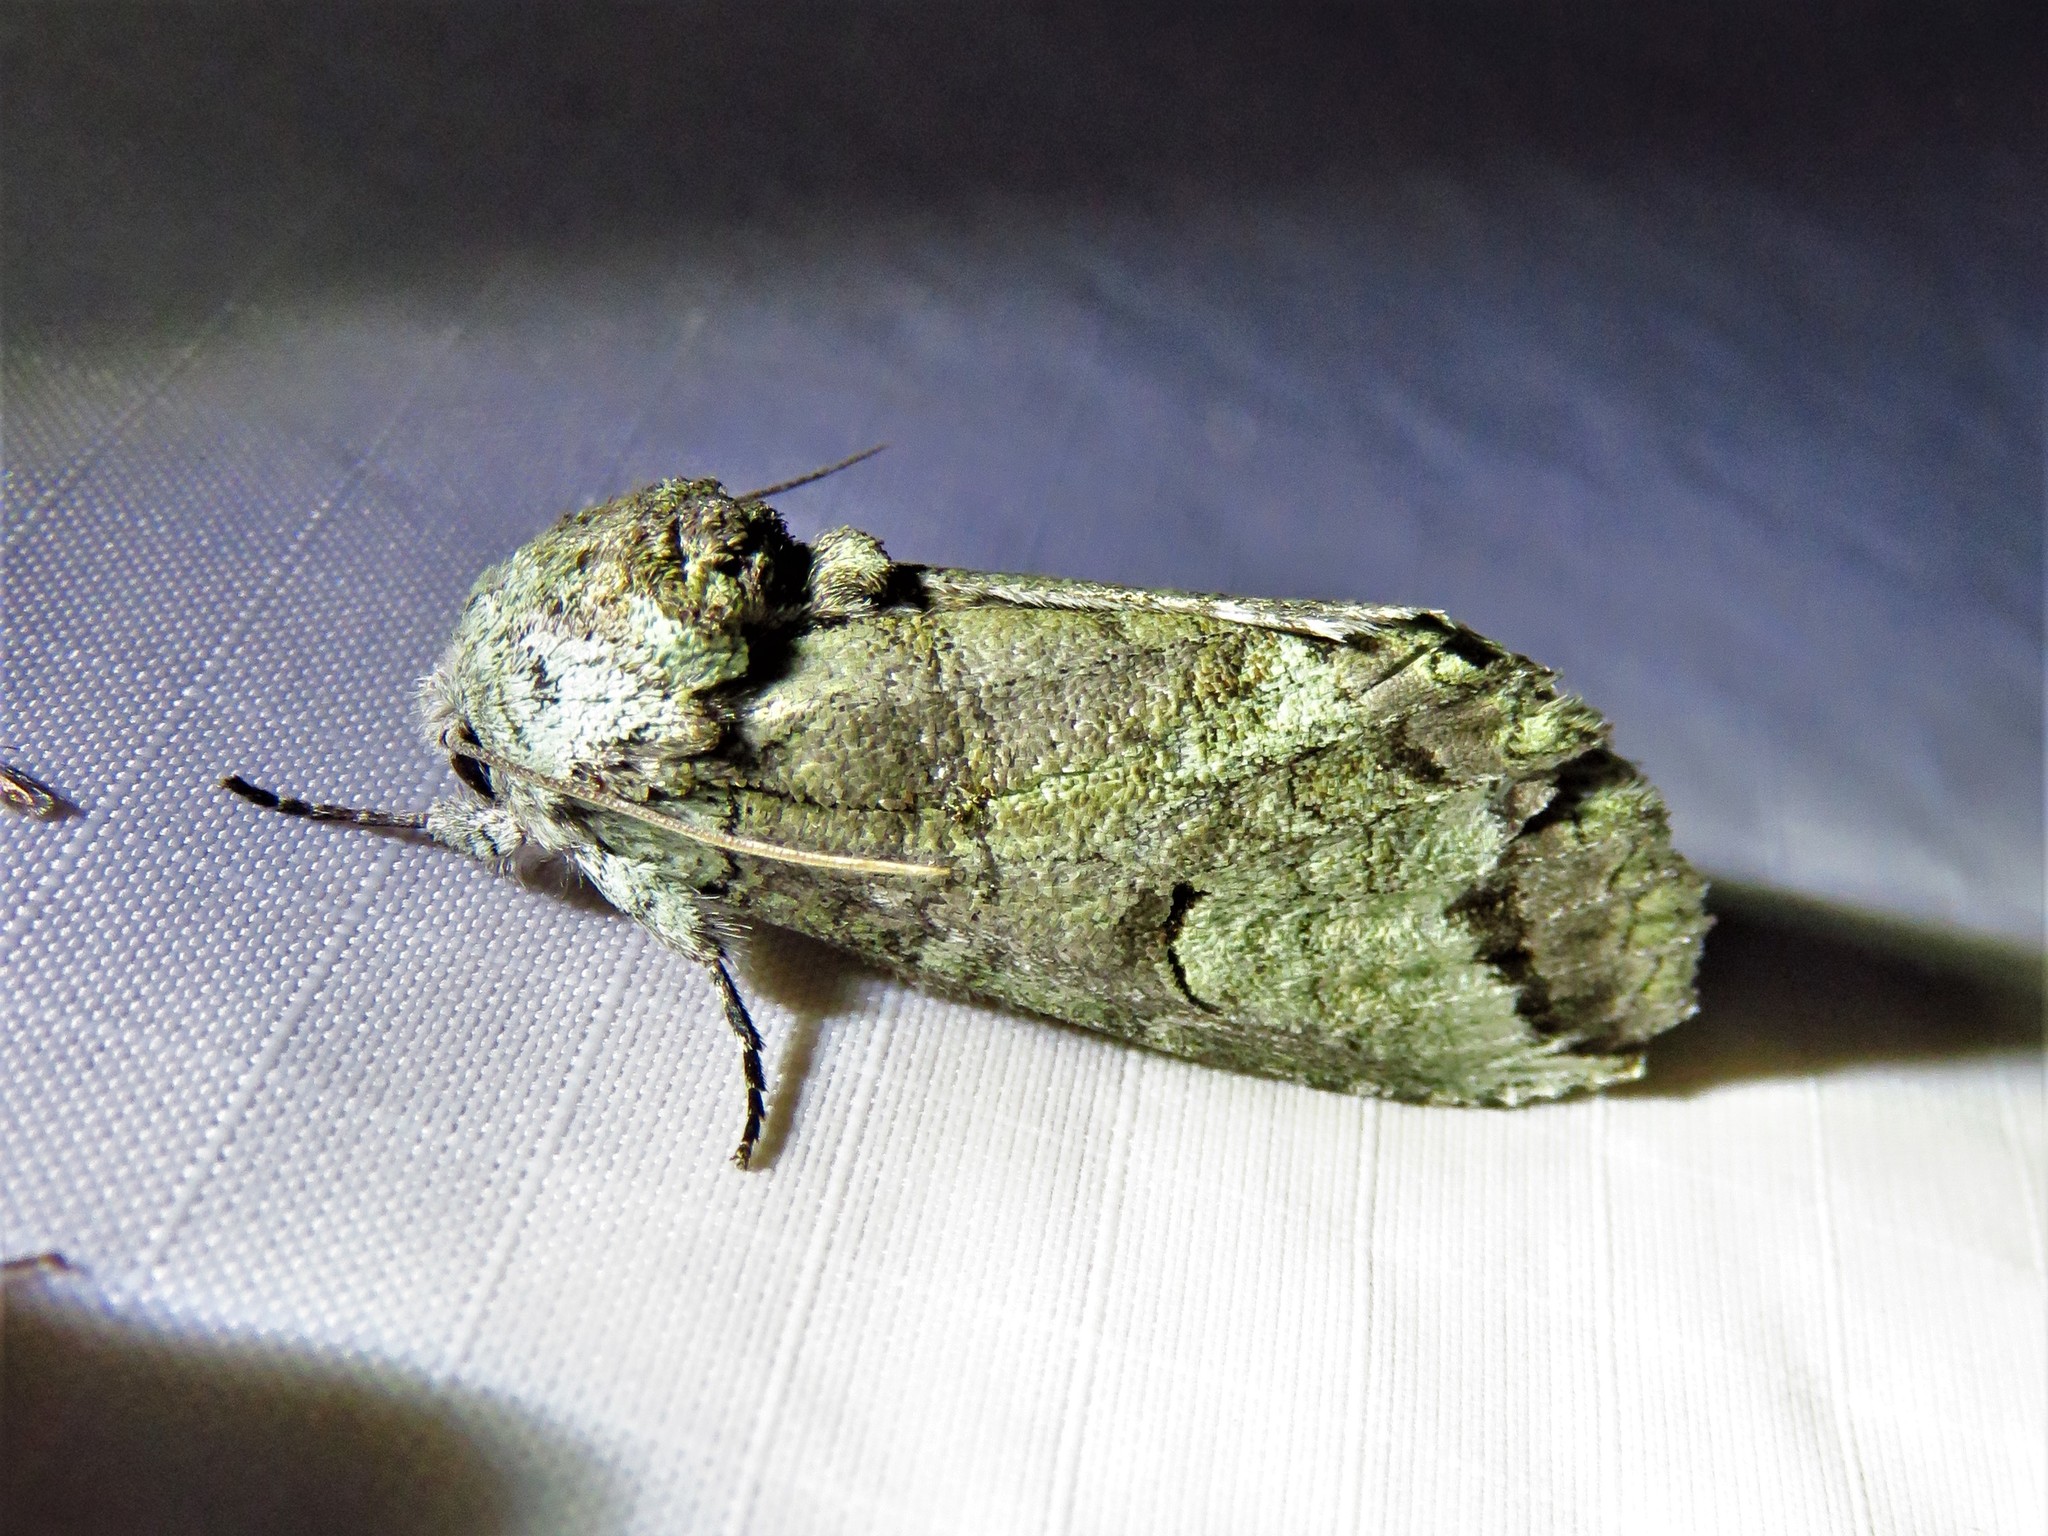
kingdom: Animalia
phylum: Arthropoda
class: Insecta
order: Lepidoptera
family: Notodontidae
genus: Heterocampa
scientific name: Heterocampa astartoides
